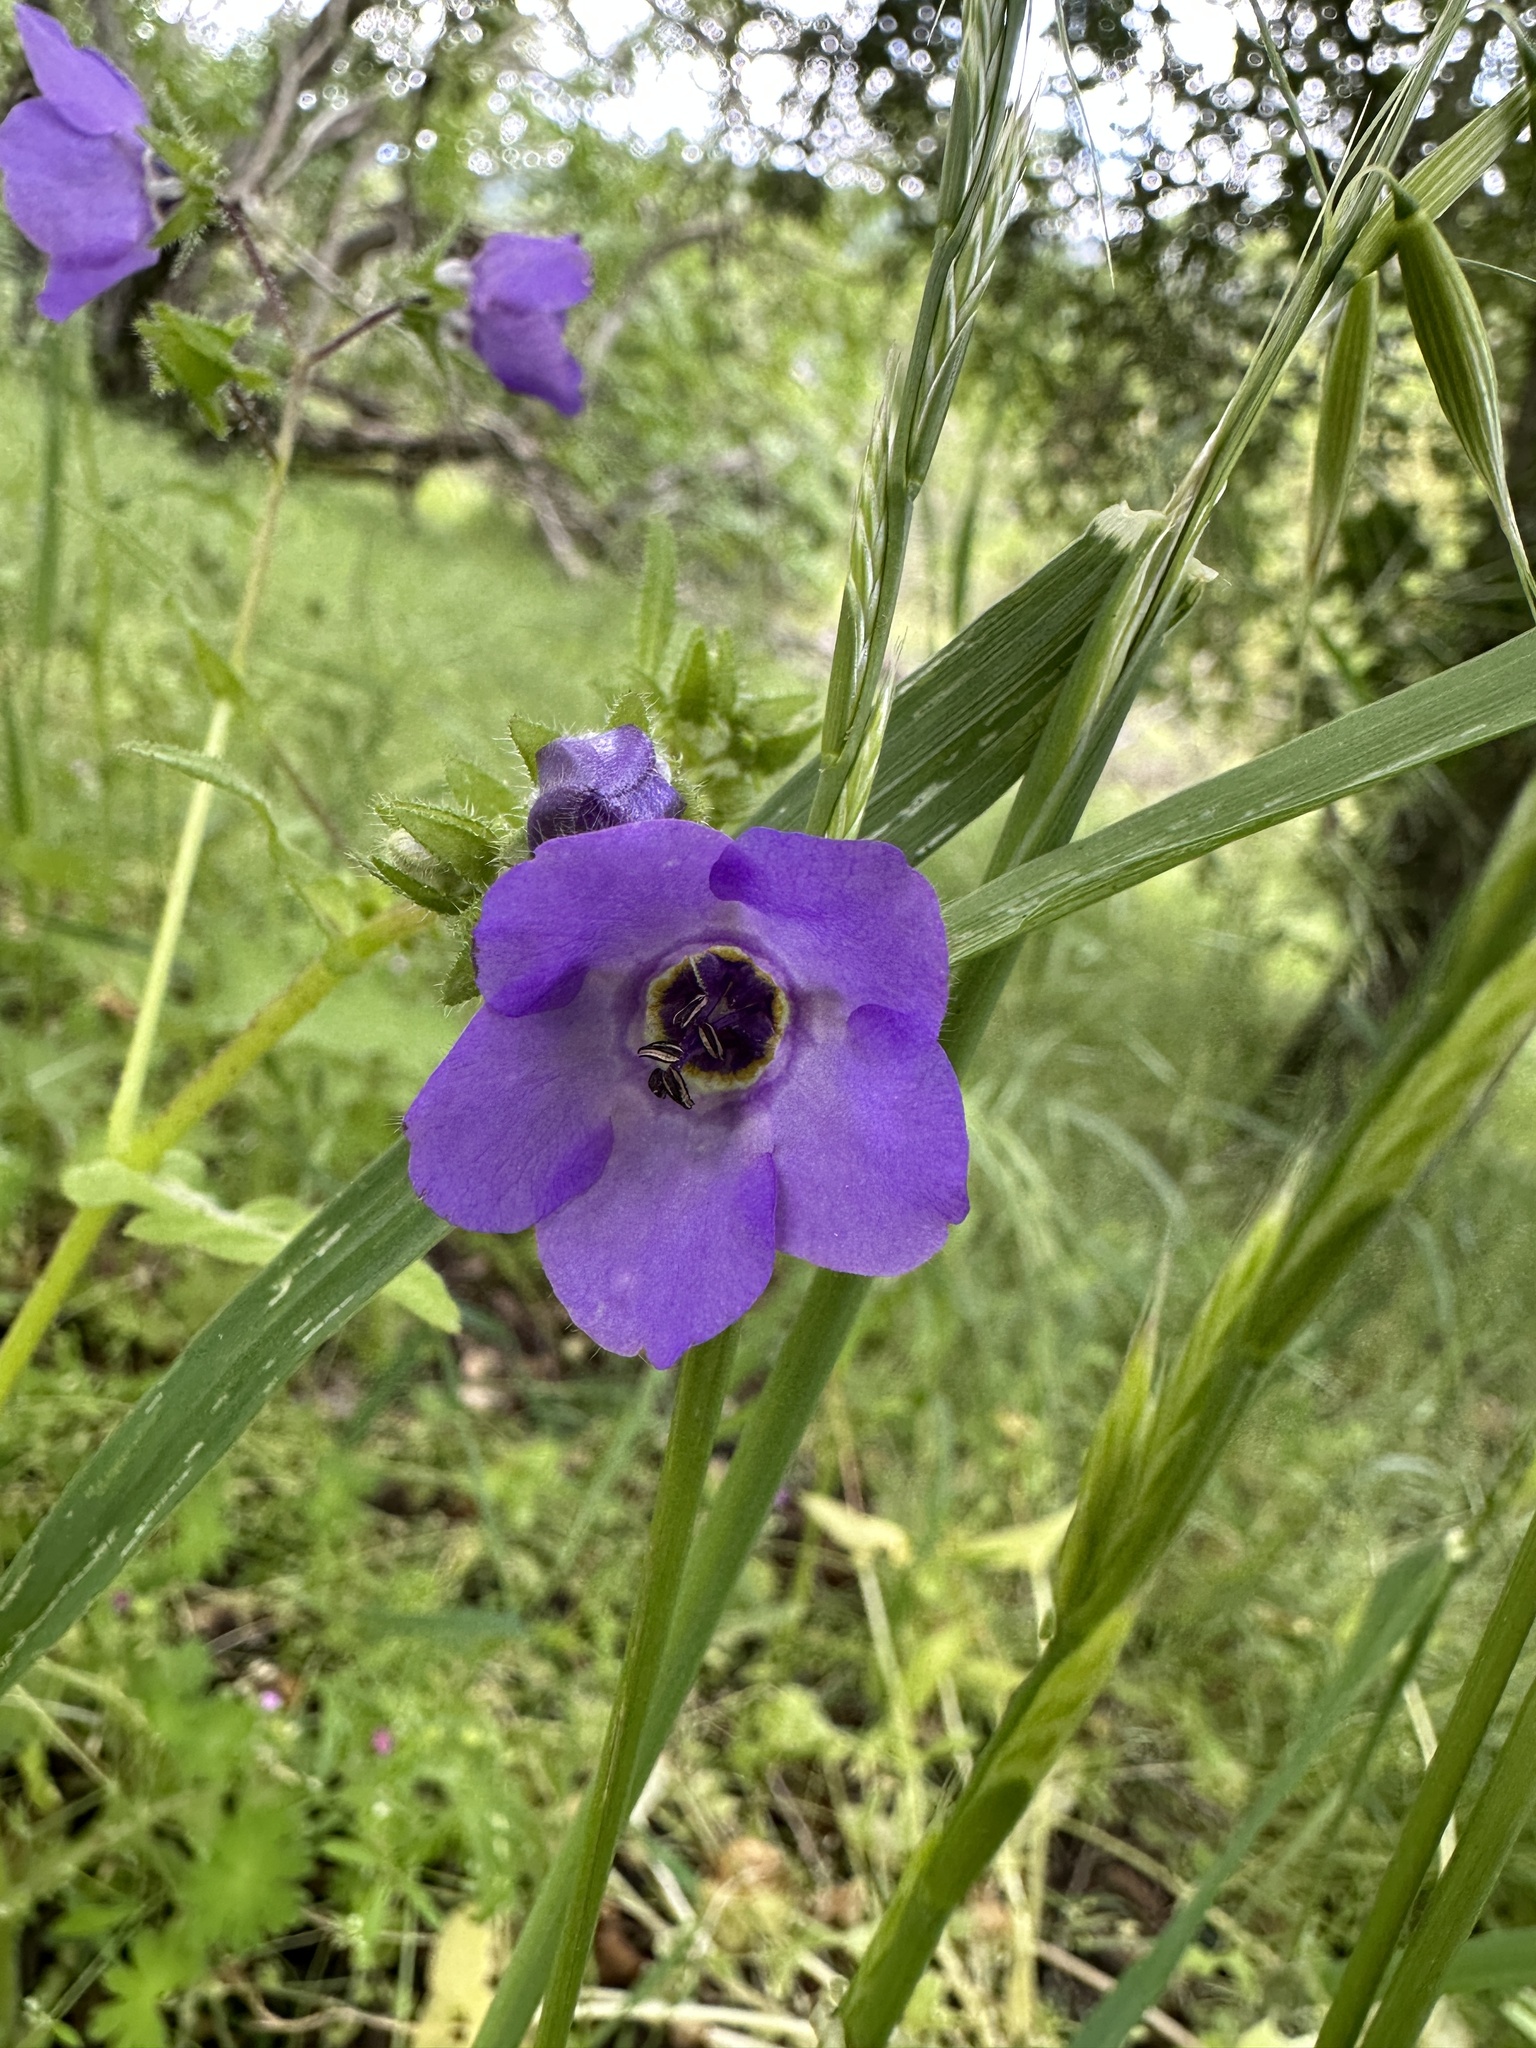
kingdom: Plantae
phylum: Tracheophyta
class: Magnoliopsida
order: Boraginales
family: Hydrophyllaceae
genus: Pholistoma
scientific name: Pholistoma auritum
